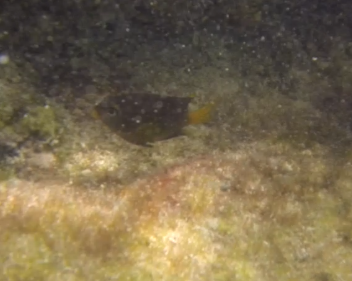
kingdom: Animalia
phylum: Chordata
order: Perciformes
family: Pomacentridae
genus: Stegastes
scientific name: Stegastes arcifrons
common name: Galapagos gregory
